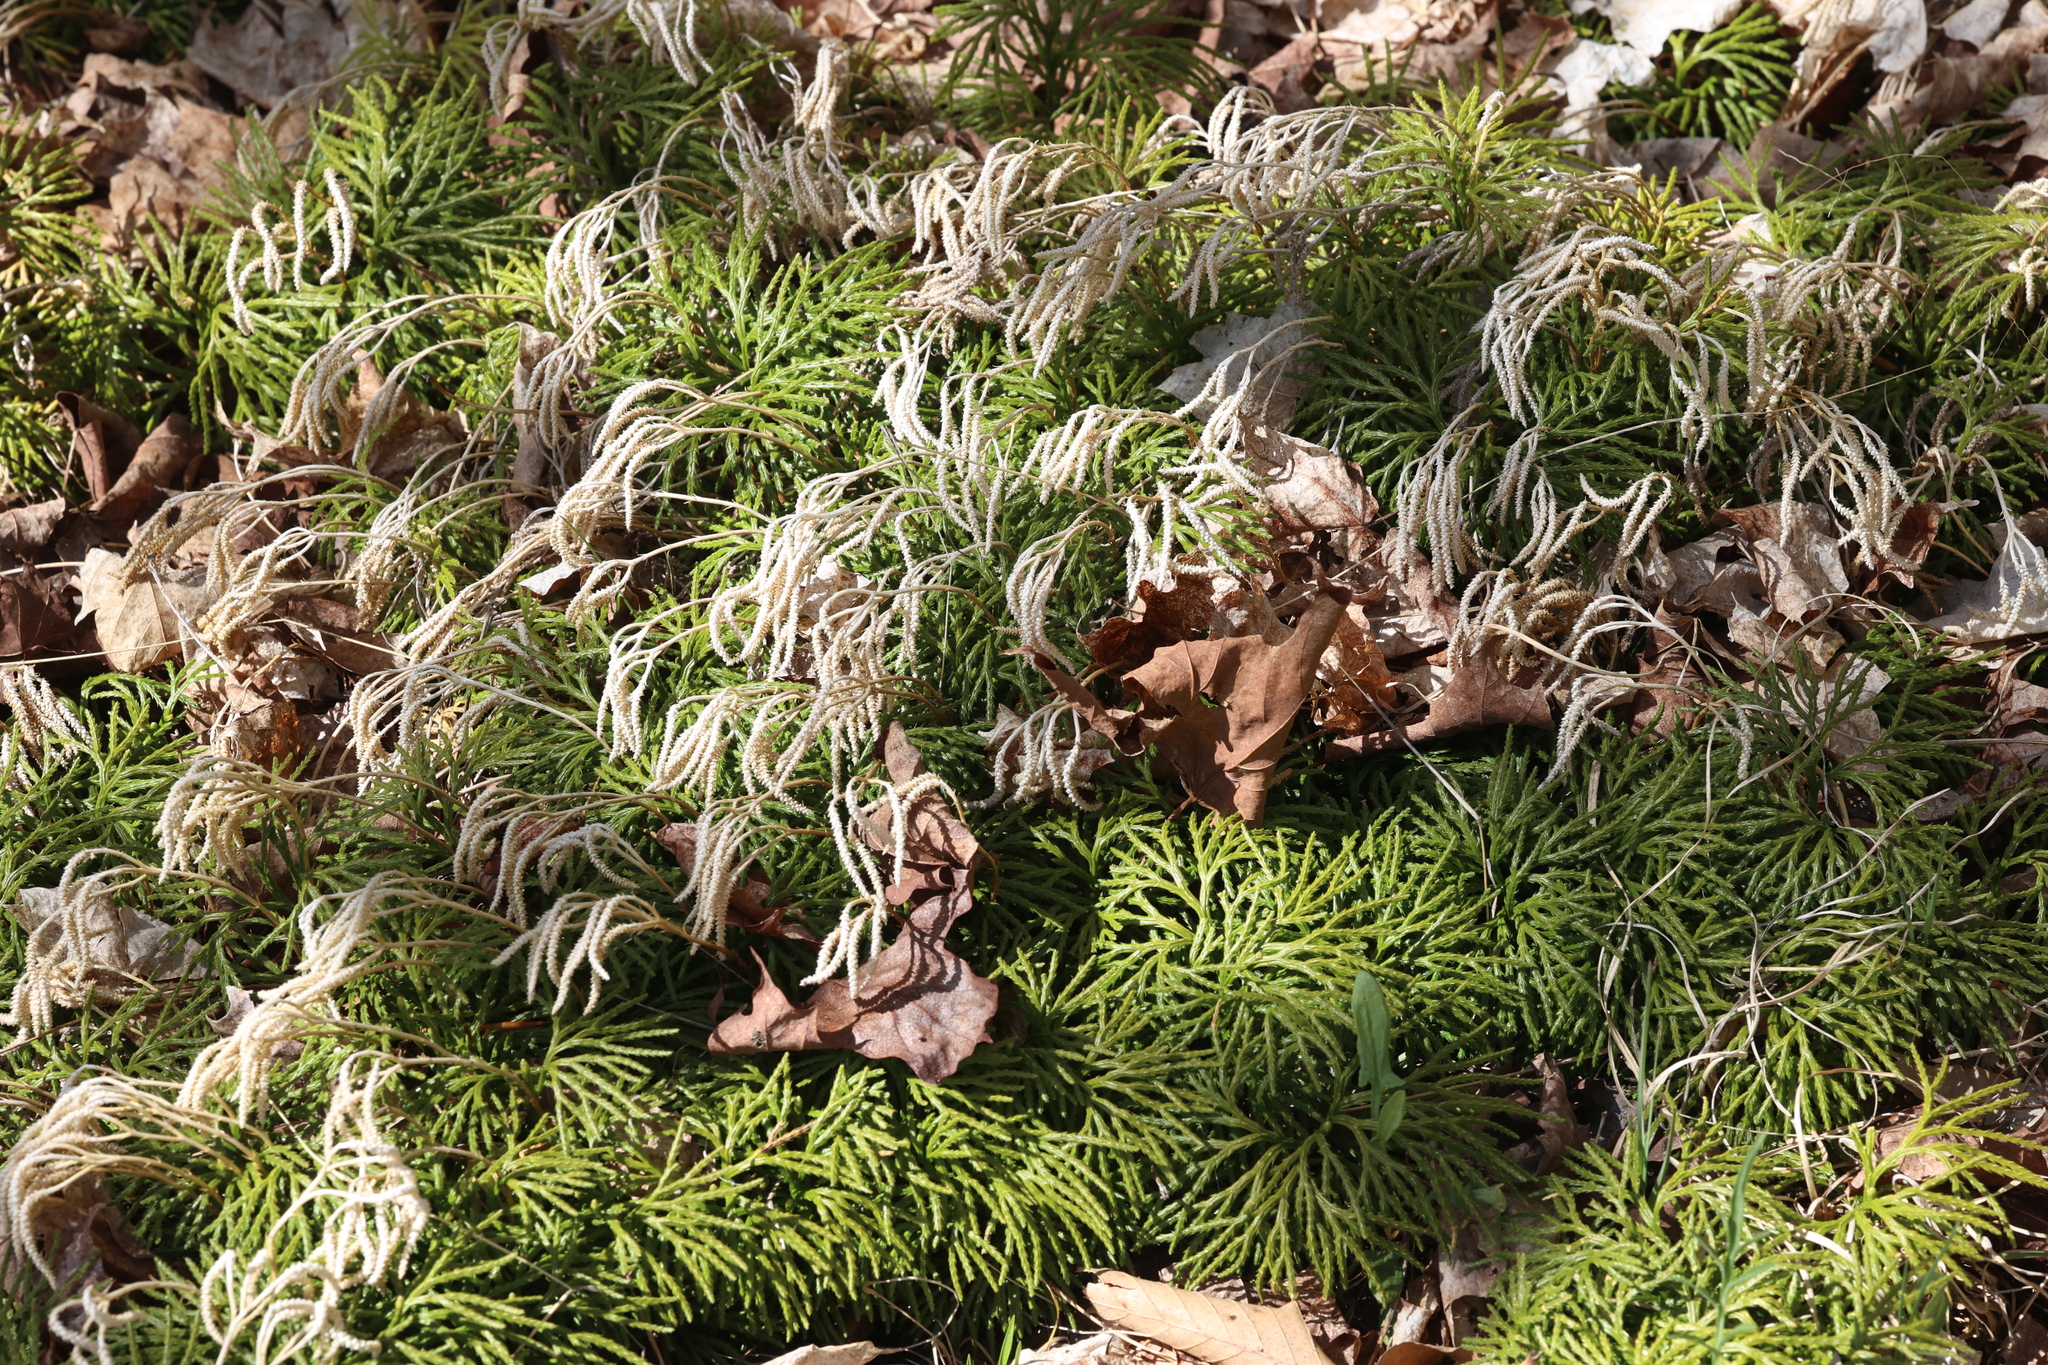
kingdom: Plantae
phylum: Tracheophyta
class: Lycopodiopsida
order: Lycopodiales
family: Lycopodiaceae
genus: Diphasiastrum
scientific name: Diphasiastrum digitatum
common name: Southern running-pine
